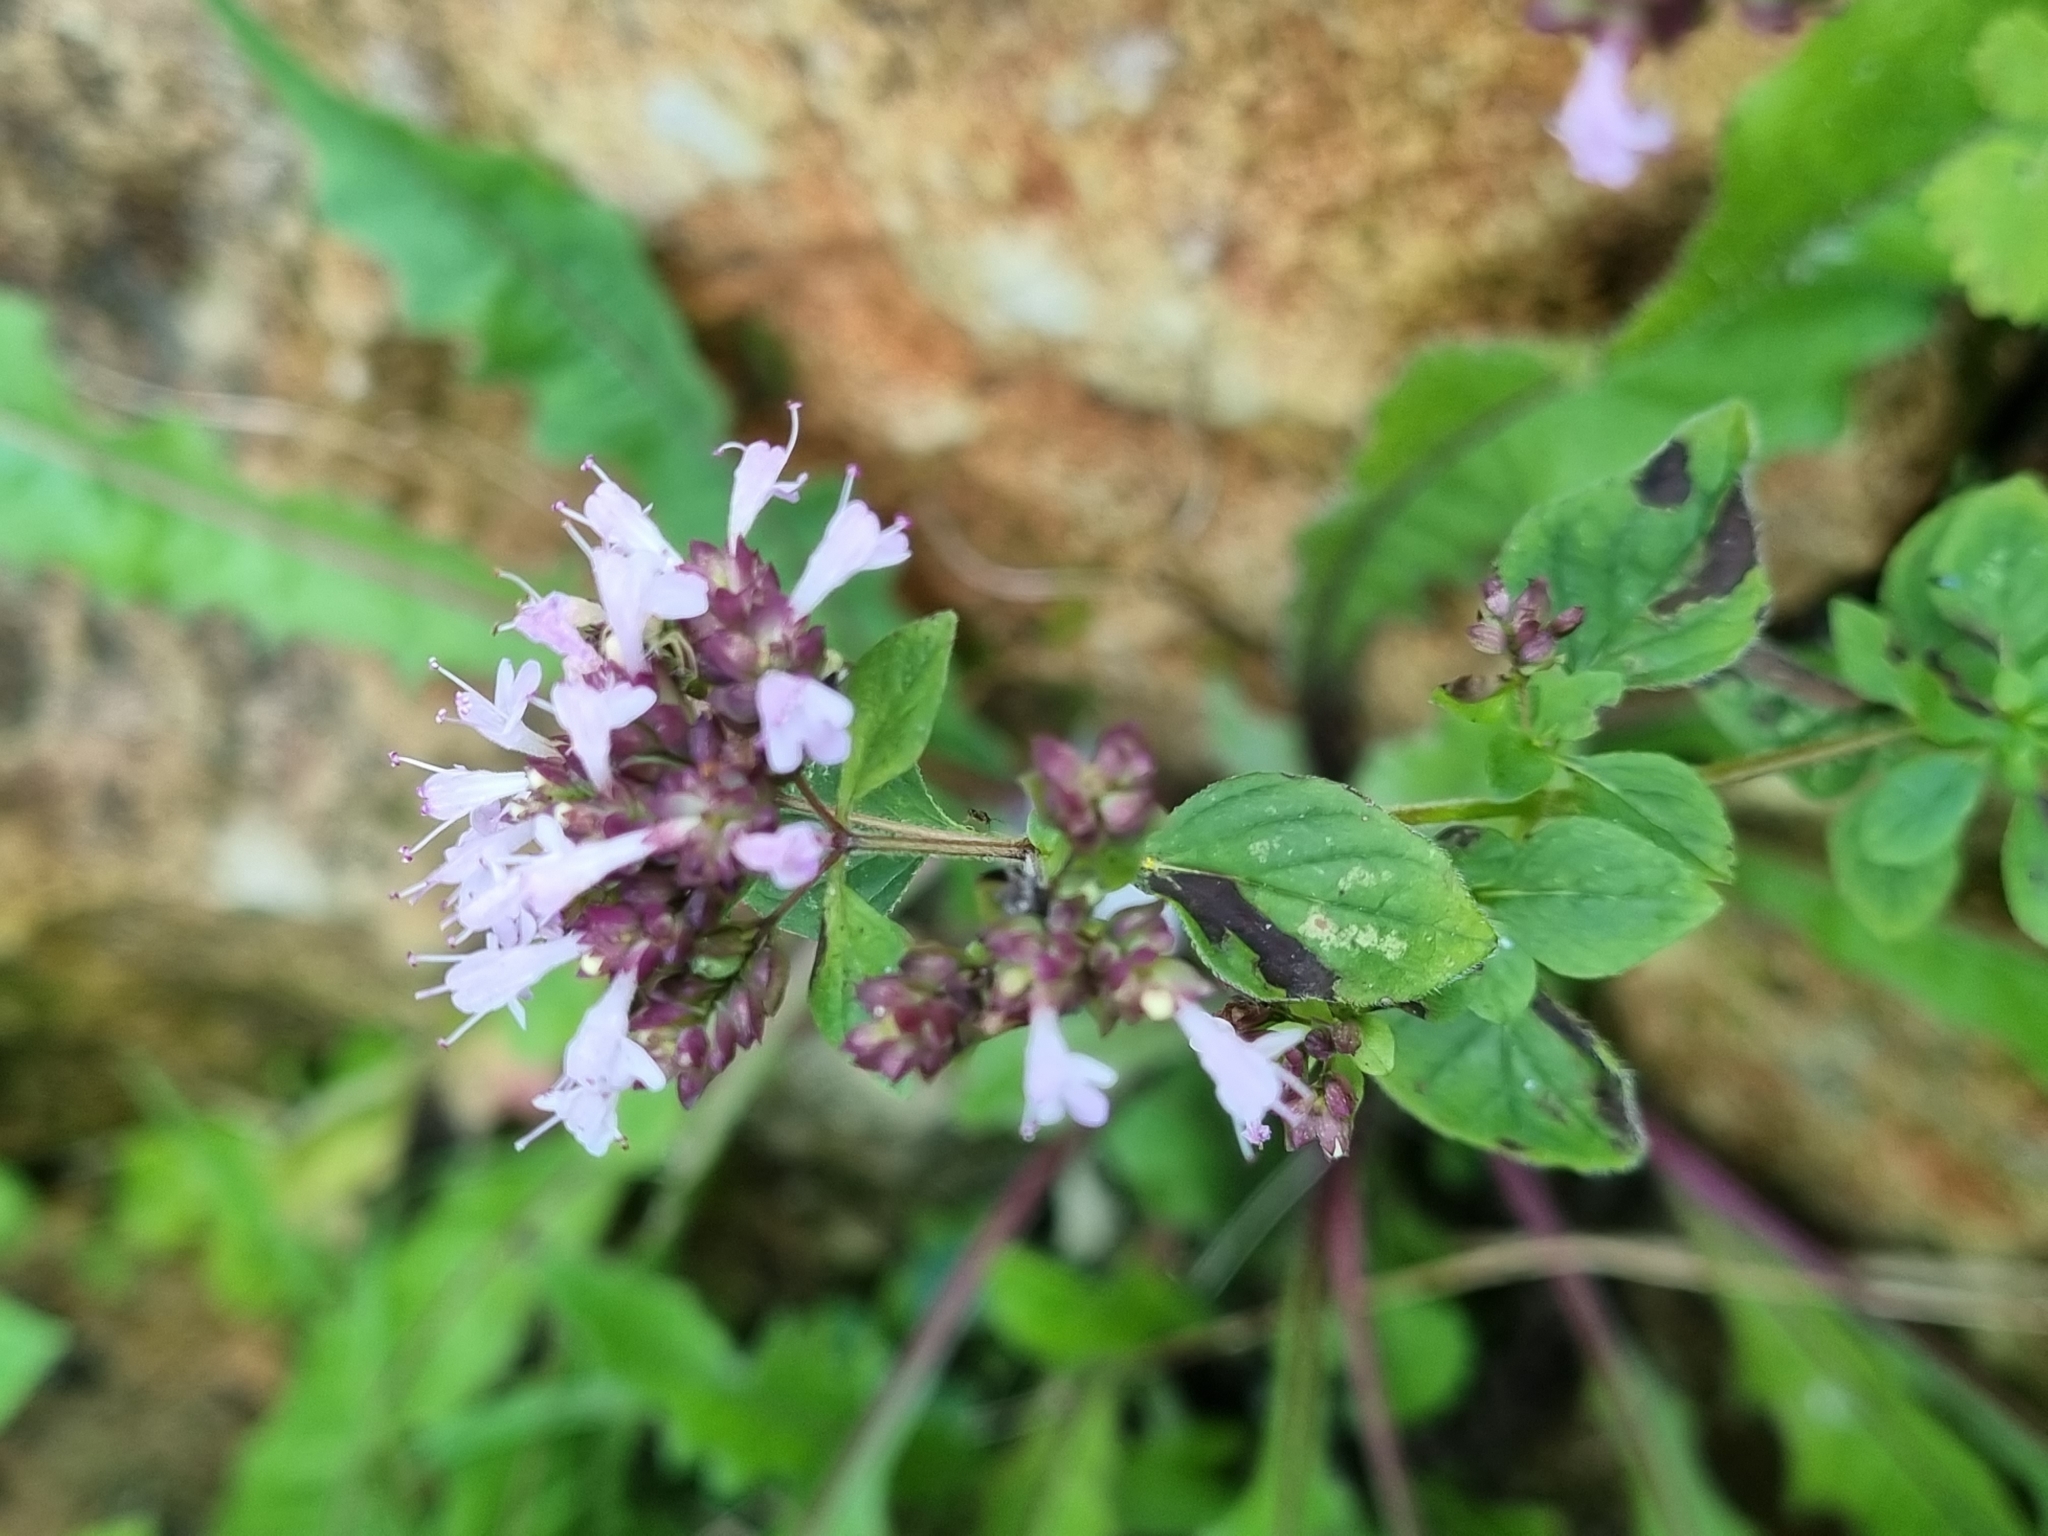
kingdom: Plantae
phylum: Tracheophyta
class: Magnoliopsida
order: Lamiales
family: Lamiaceae
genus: Origanum
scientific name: Origanum vulgare
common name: Wild marjoram
